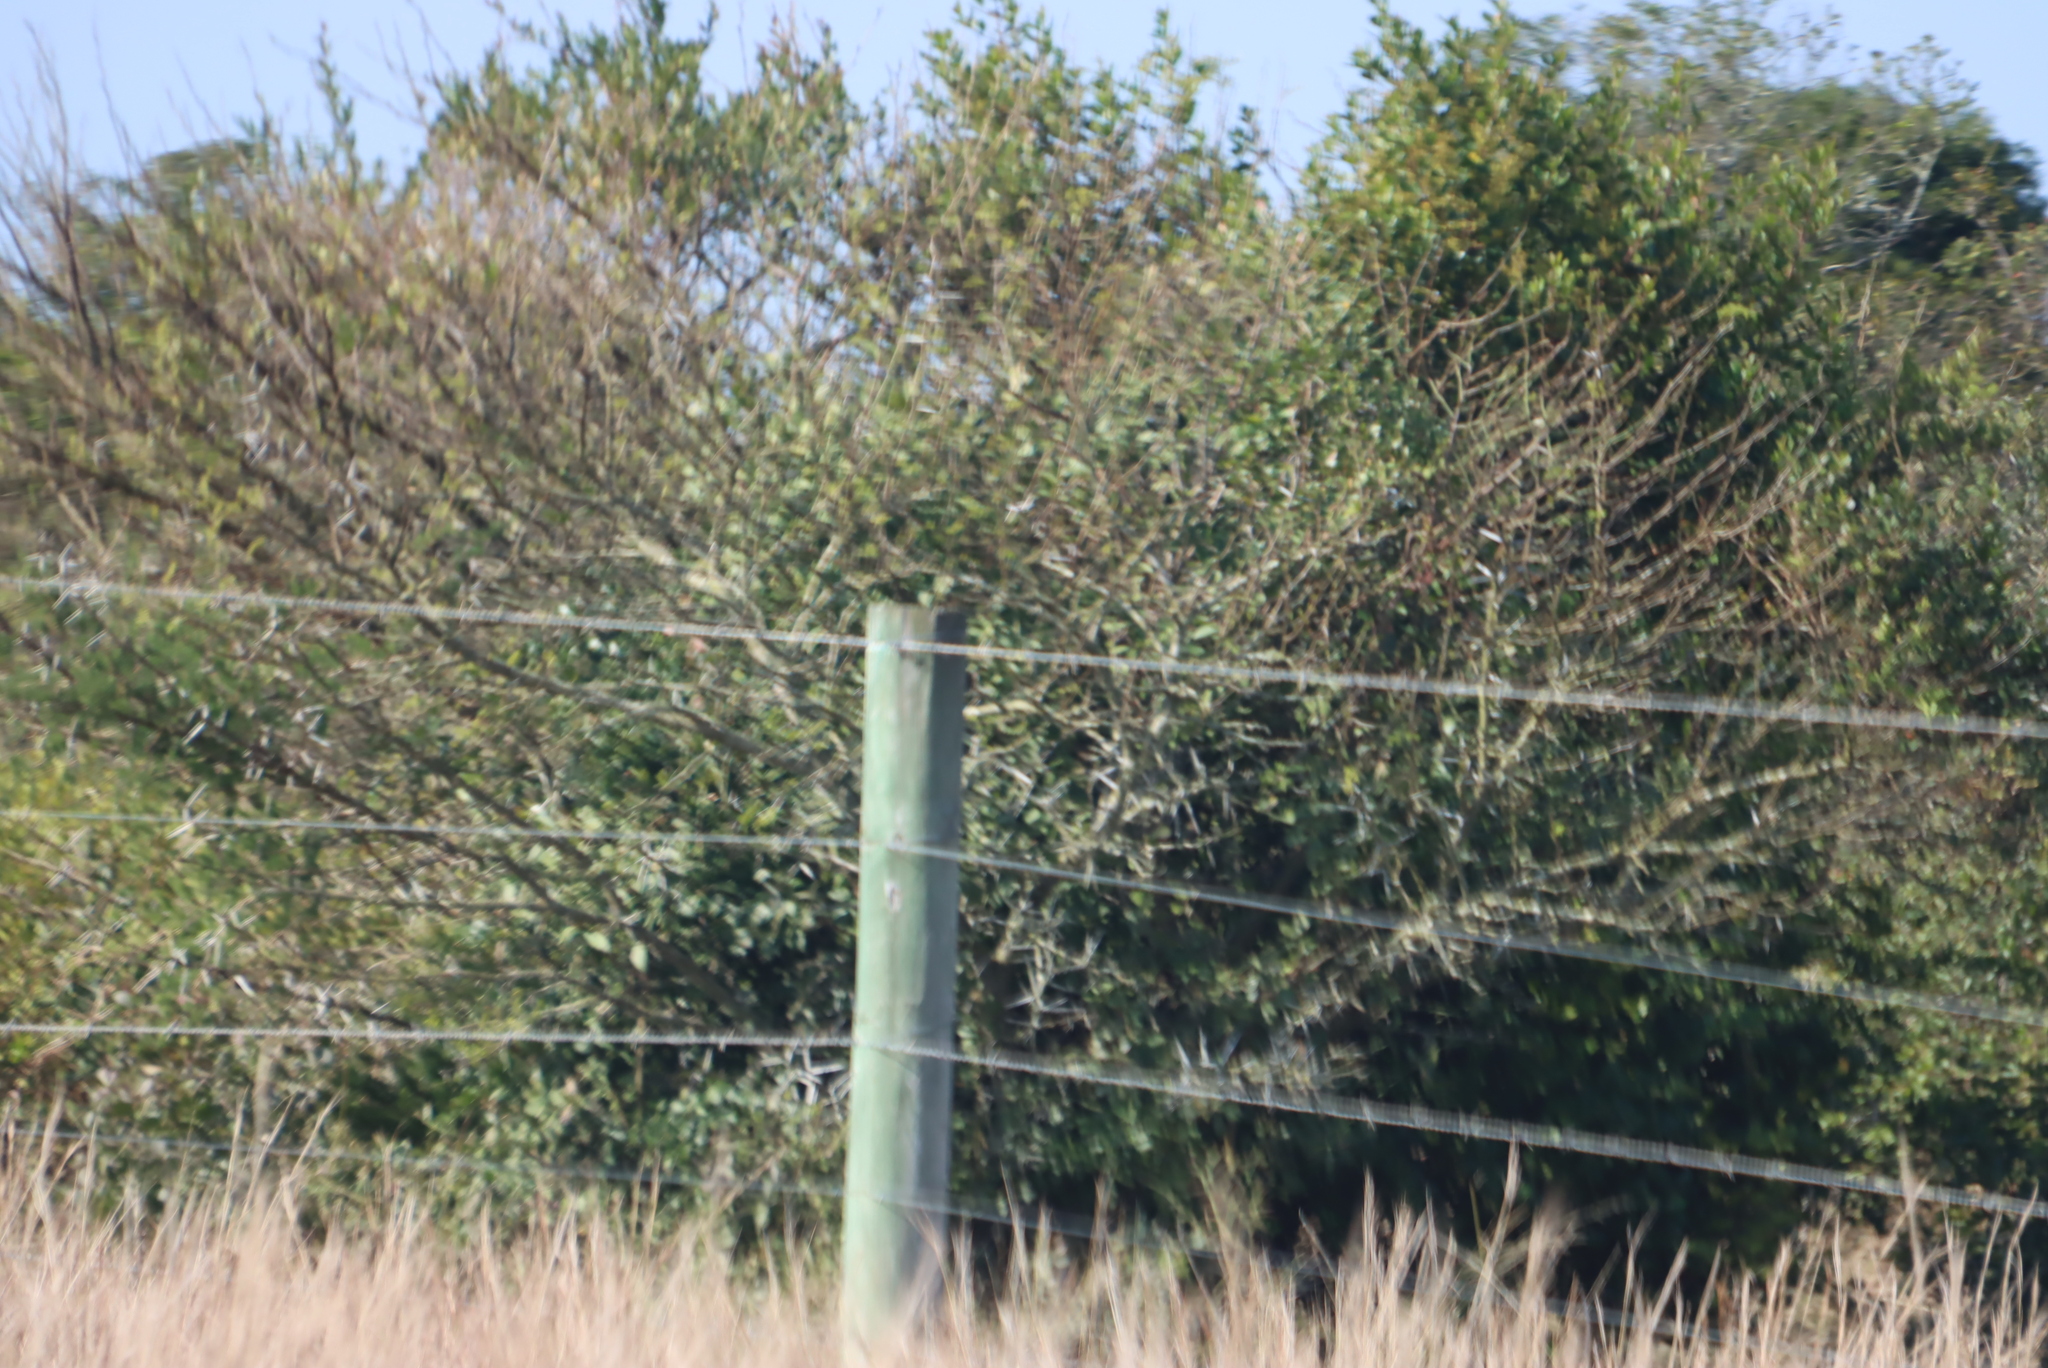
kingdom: Plantae
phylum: Tracheophyta
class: Magnoliopsida
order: Fabales
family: Fabaceae
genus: Vachellia
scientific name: Vachellia karroo
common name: Sweet thorn
